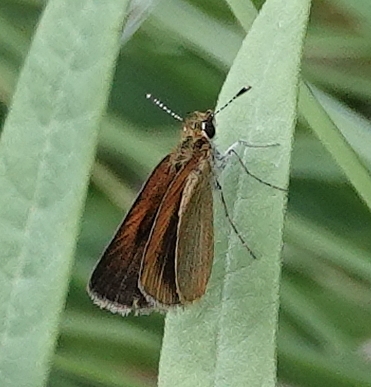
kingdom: Animalia
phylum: Arthropoda
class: Insecta
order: Lepidoptera
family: Hesperiidae
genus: Ancyloxypha
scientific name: Ancyloxypha numitor
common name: Least skipper
